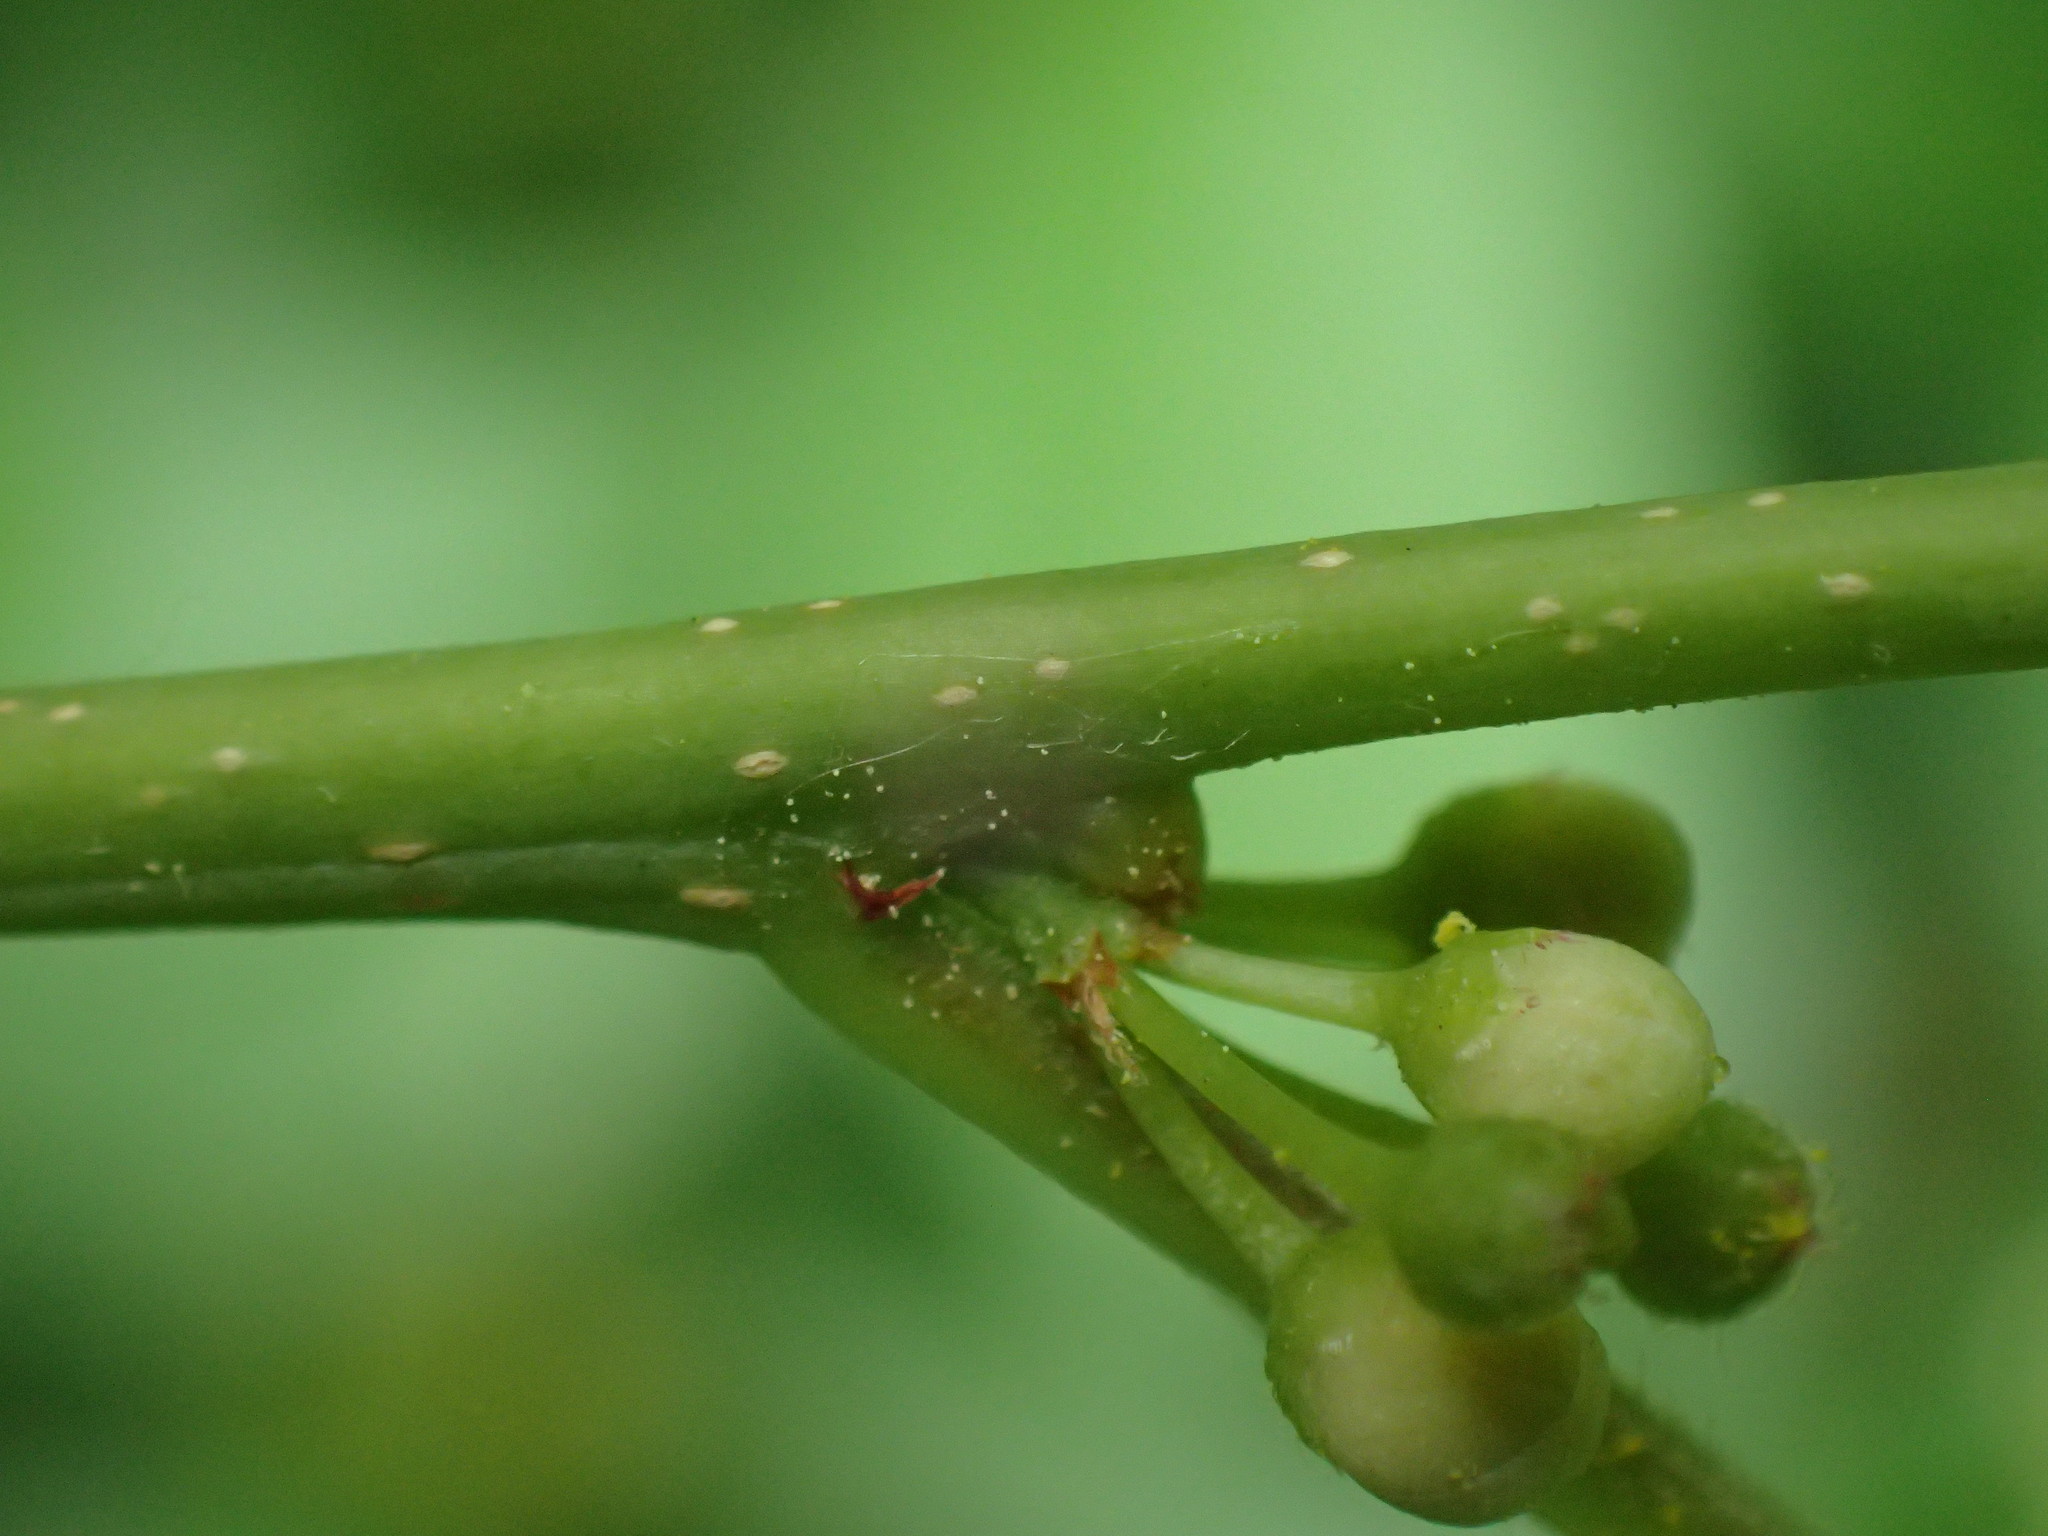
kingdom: Plantae
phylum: Tracheophyta
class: Magnoliopsida
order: Aquifoliales
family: Aquifoliaceae
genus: Ilex
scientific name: Ilex verticillata
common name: Virginia winterberry
